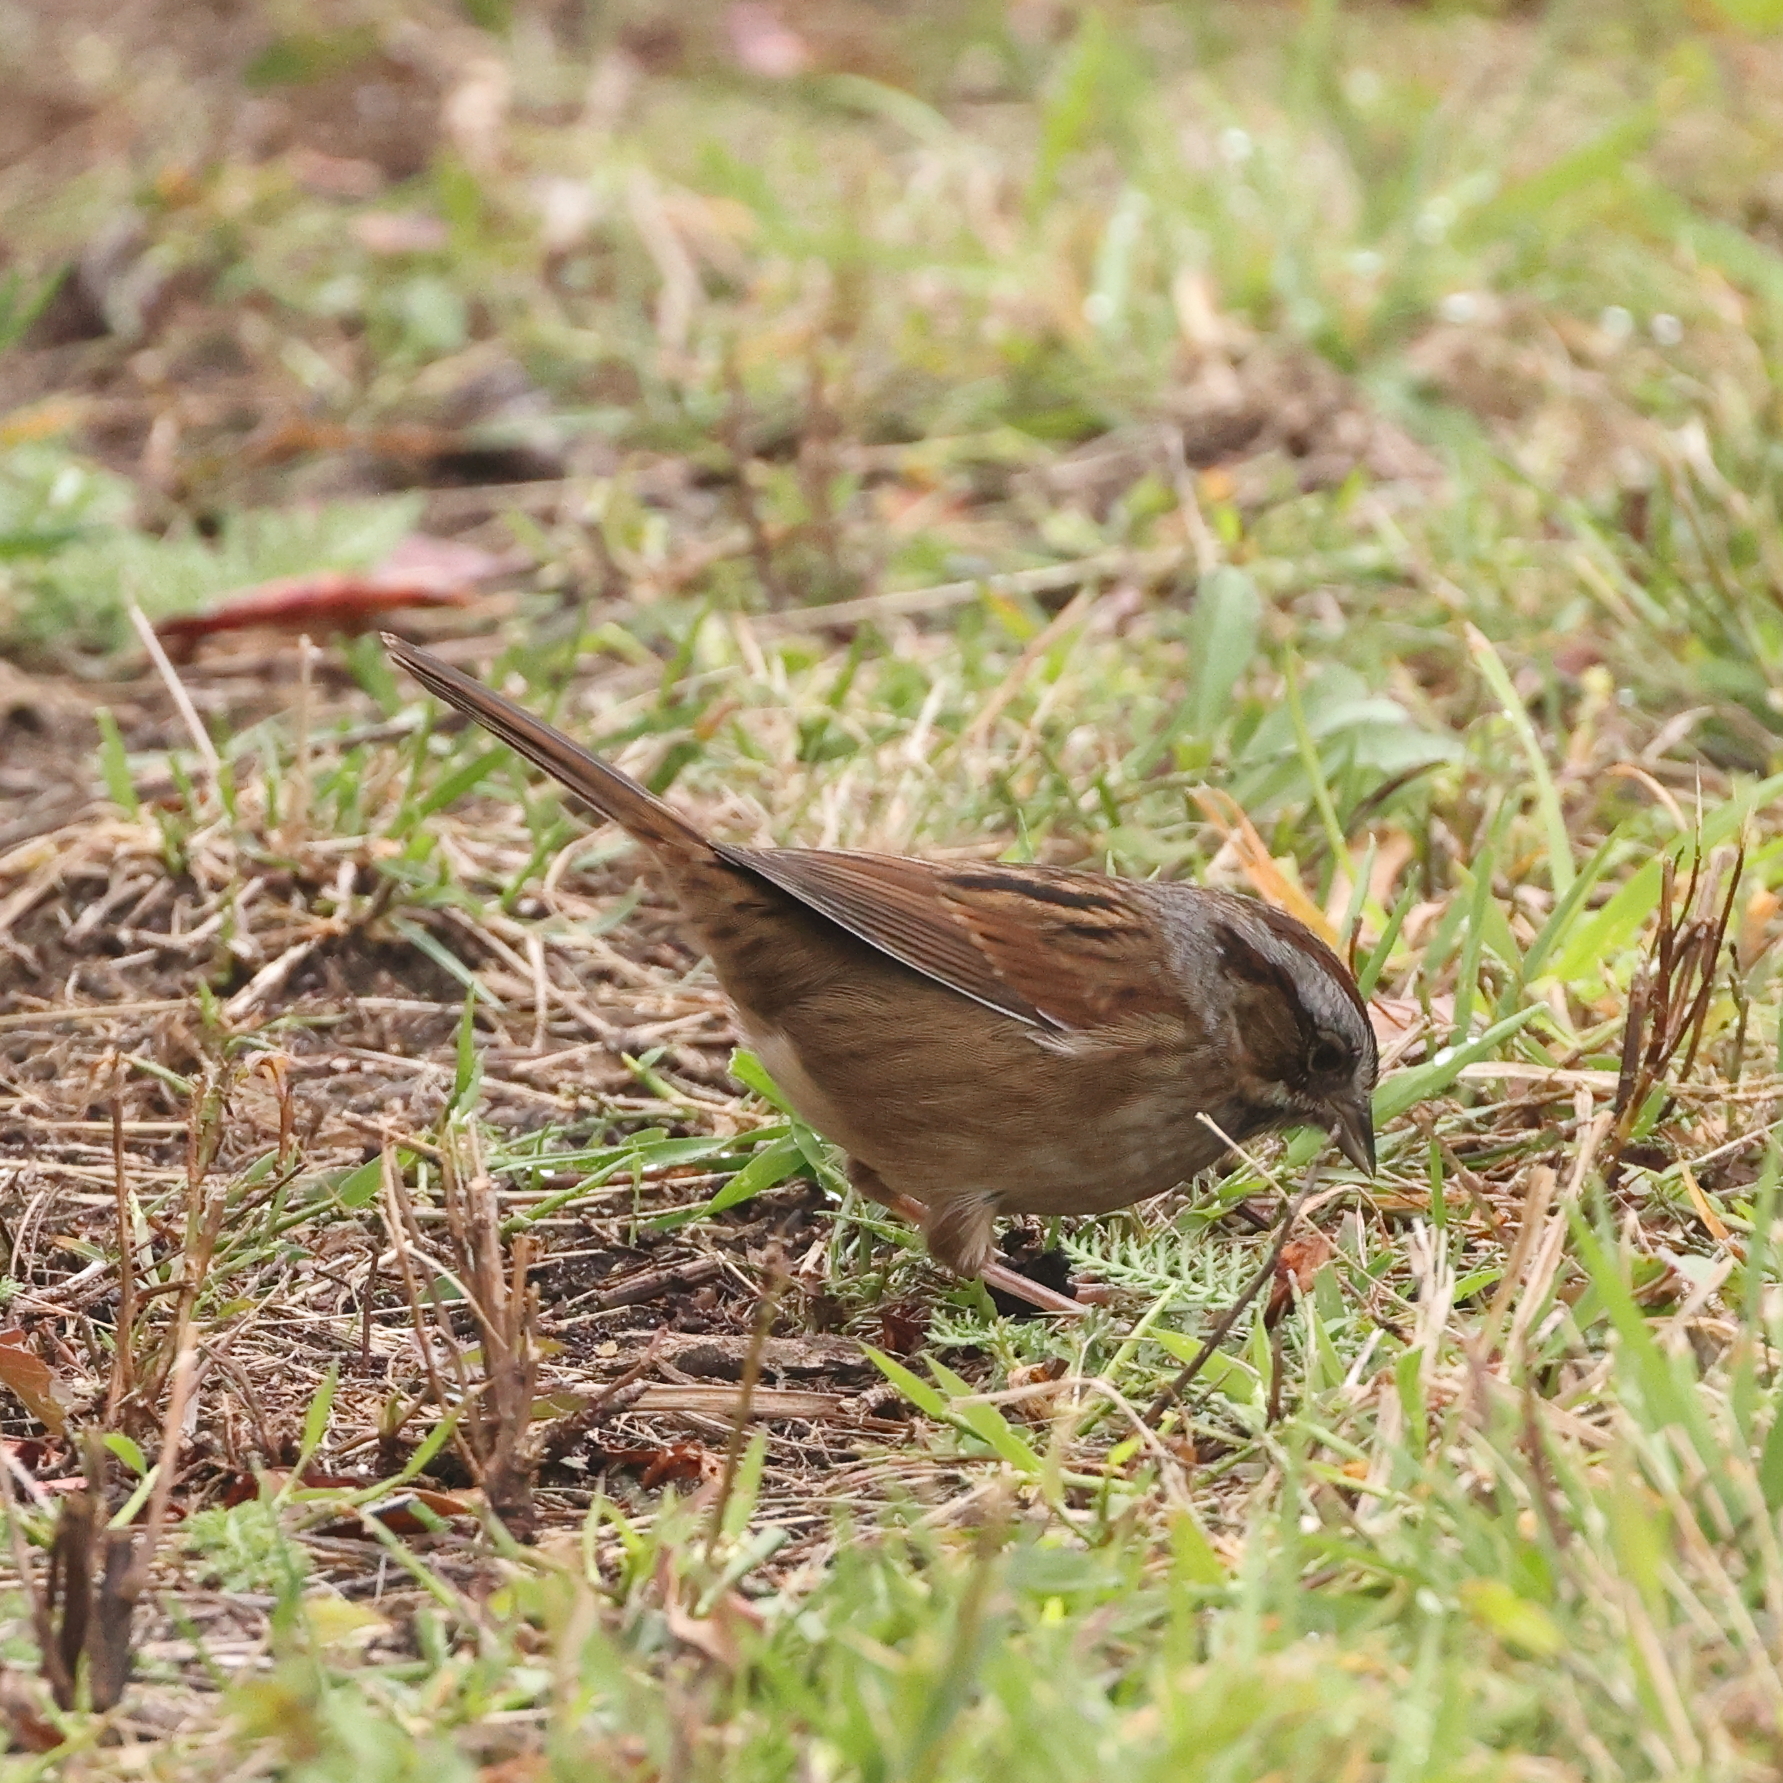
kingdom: Animalia
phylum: Chordata
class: Aves
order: Passeriformes
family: Passerellidae
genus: Melospiza
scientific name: Melospiza georgiana
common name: Swamp sparrow
